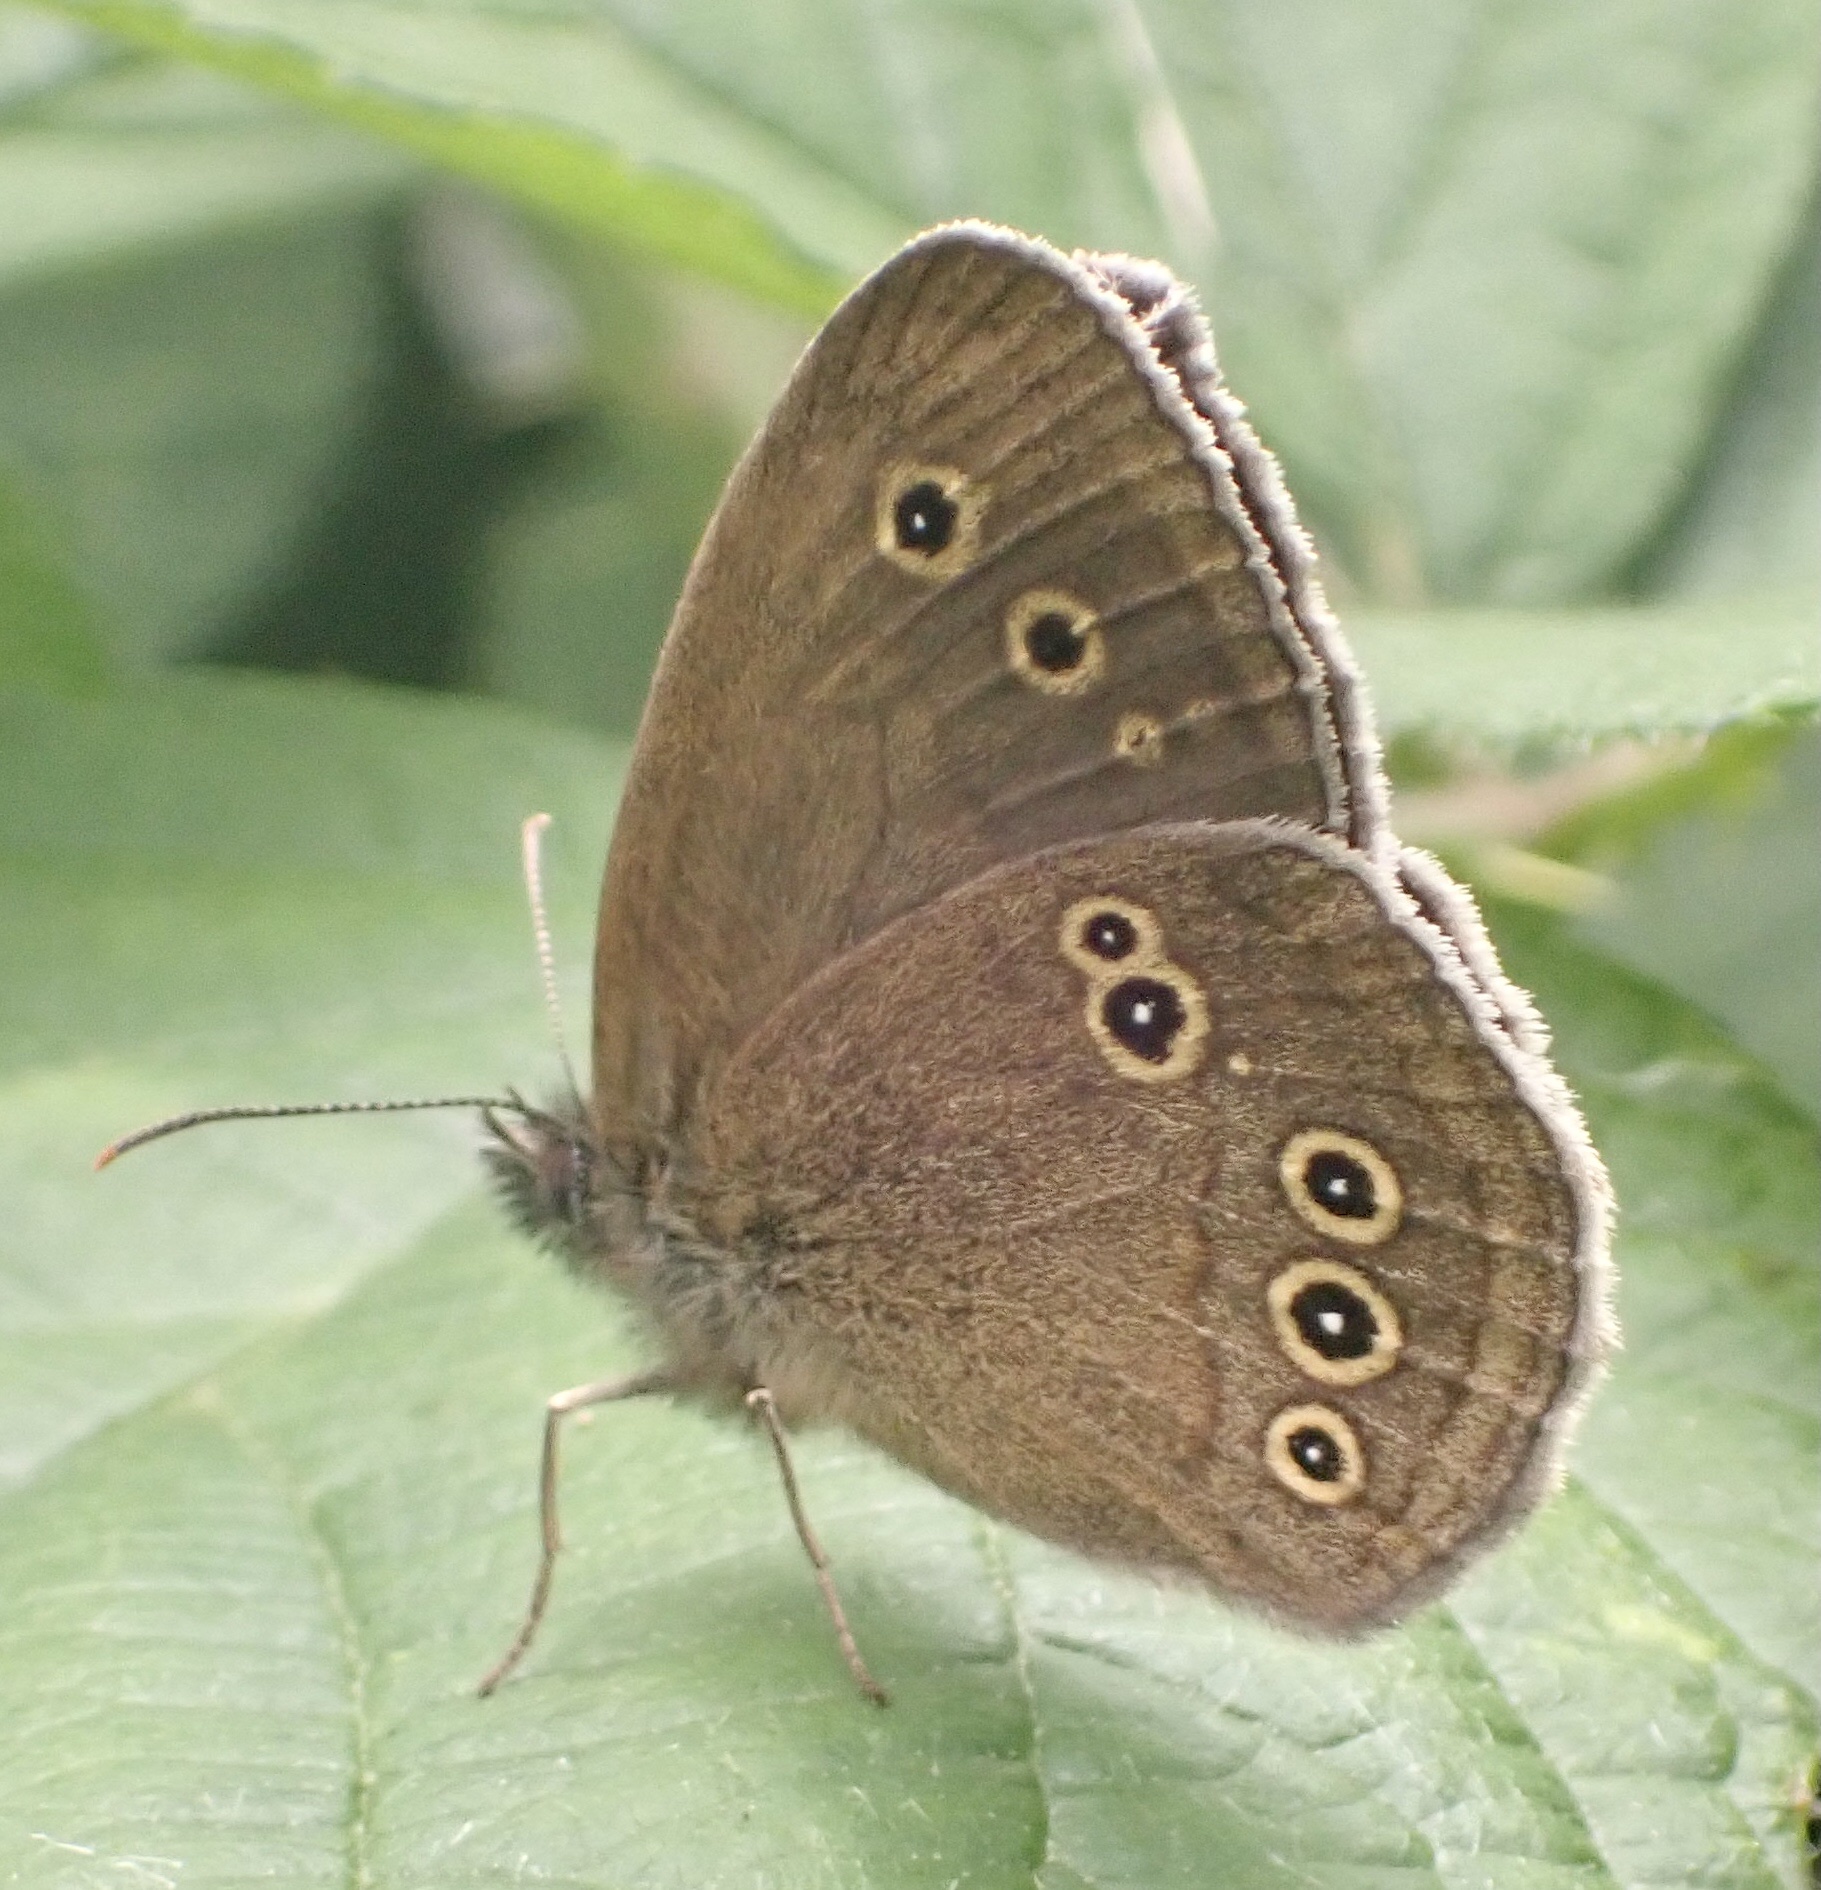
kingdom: Animalia
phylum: Arthropoda
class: Insecta
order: Lepidoptera
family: Nymphalidae
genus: Aphantopus
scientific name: Aphantopus hyperantus
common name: Ringlet
